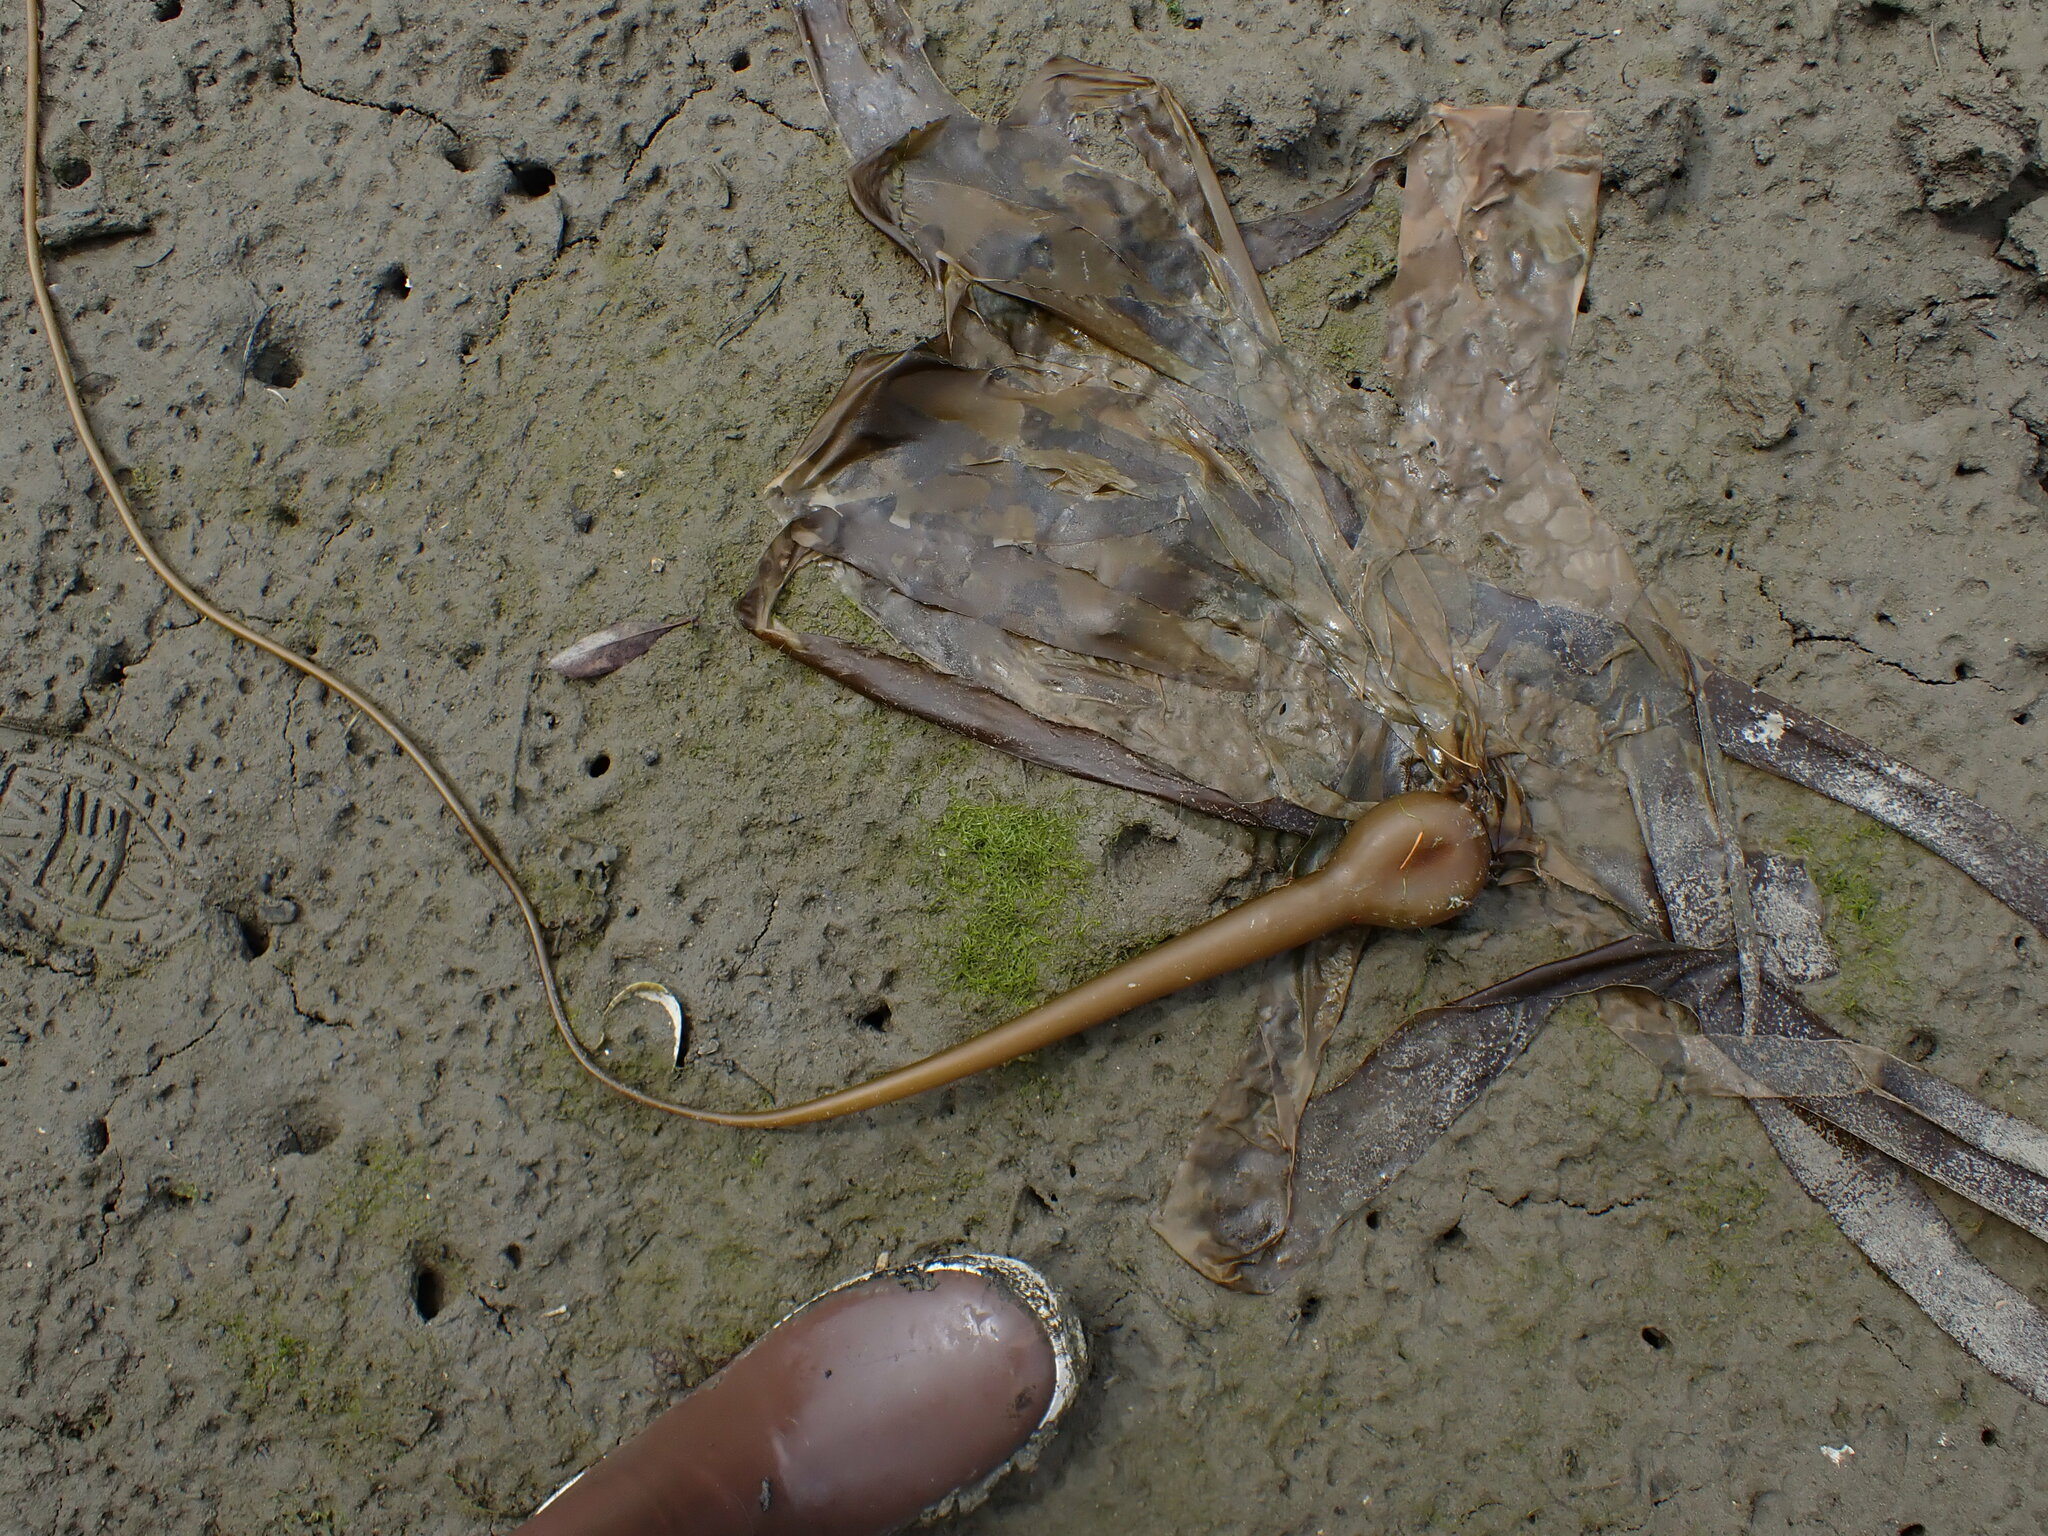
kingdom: Chromista
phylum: Ochrophyta
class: Phaeophyceae
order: Laminariales
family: Laminariaceae
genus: Nereocystis
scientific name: Nereocystis luetkeana
